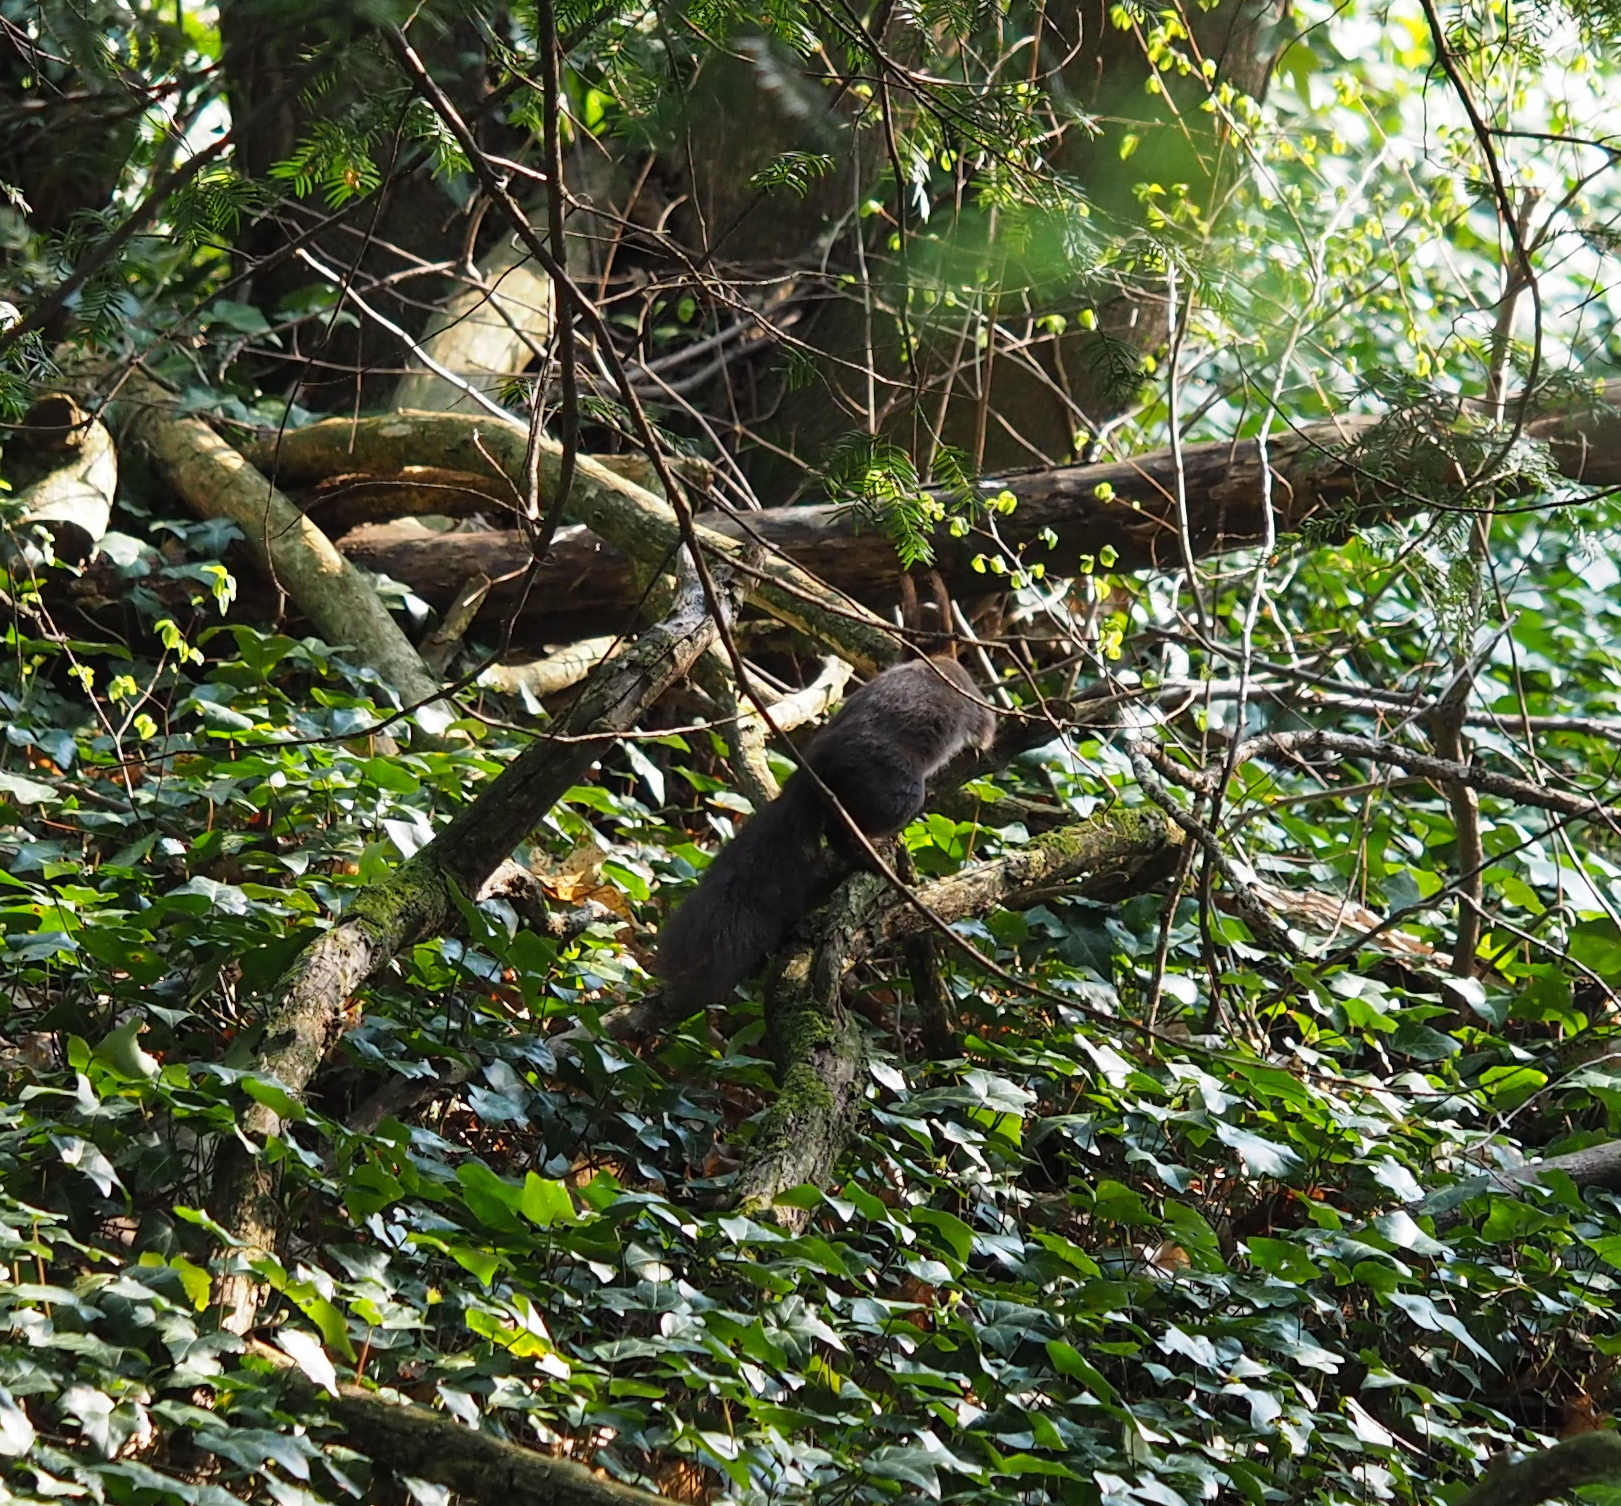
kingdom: Animalia
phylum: Chordata
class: Mammalia
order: Rodentia
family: Sciuridae
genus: Sciurus
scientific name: Sciurus vulgaris
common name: Eurasian red squirrel
